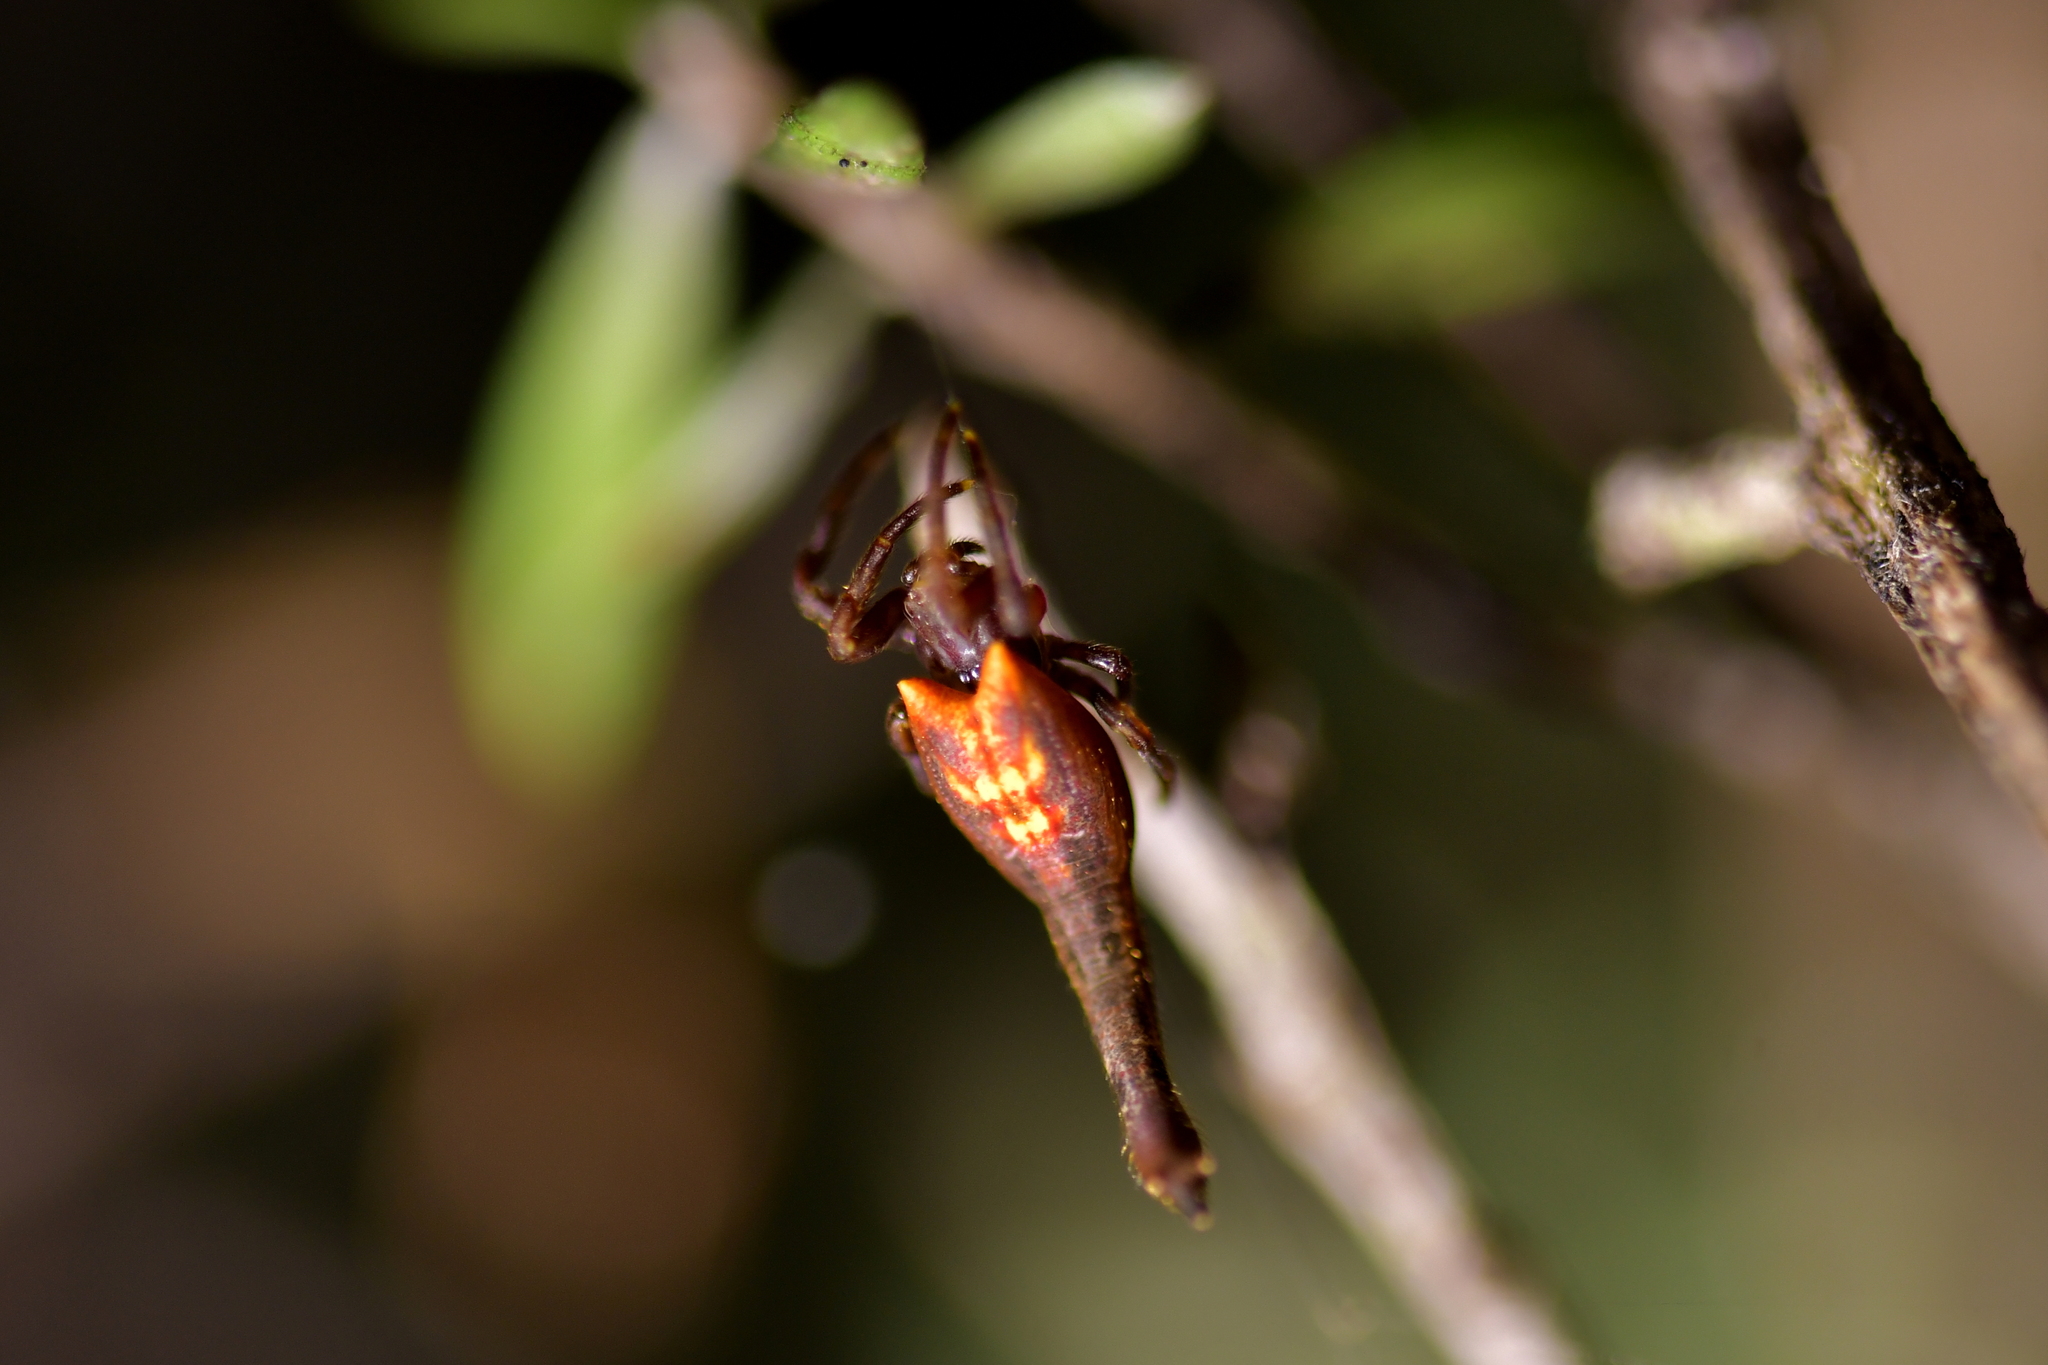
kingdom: Animalia
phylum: Arthropoda
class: Arachnida
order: Araneae
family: Araneidae
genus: Arachnura
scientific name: Arachnura feredayi
